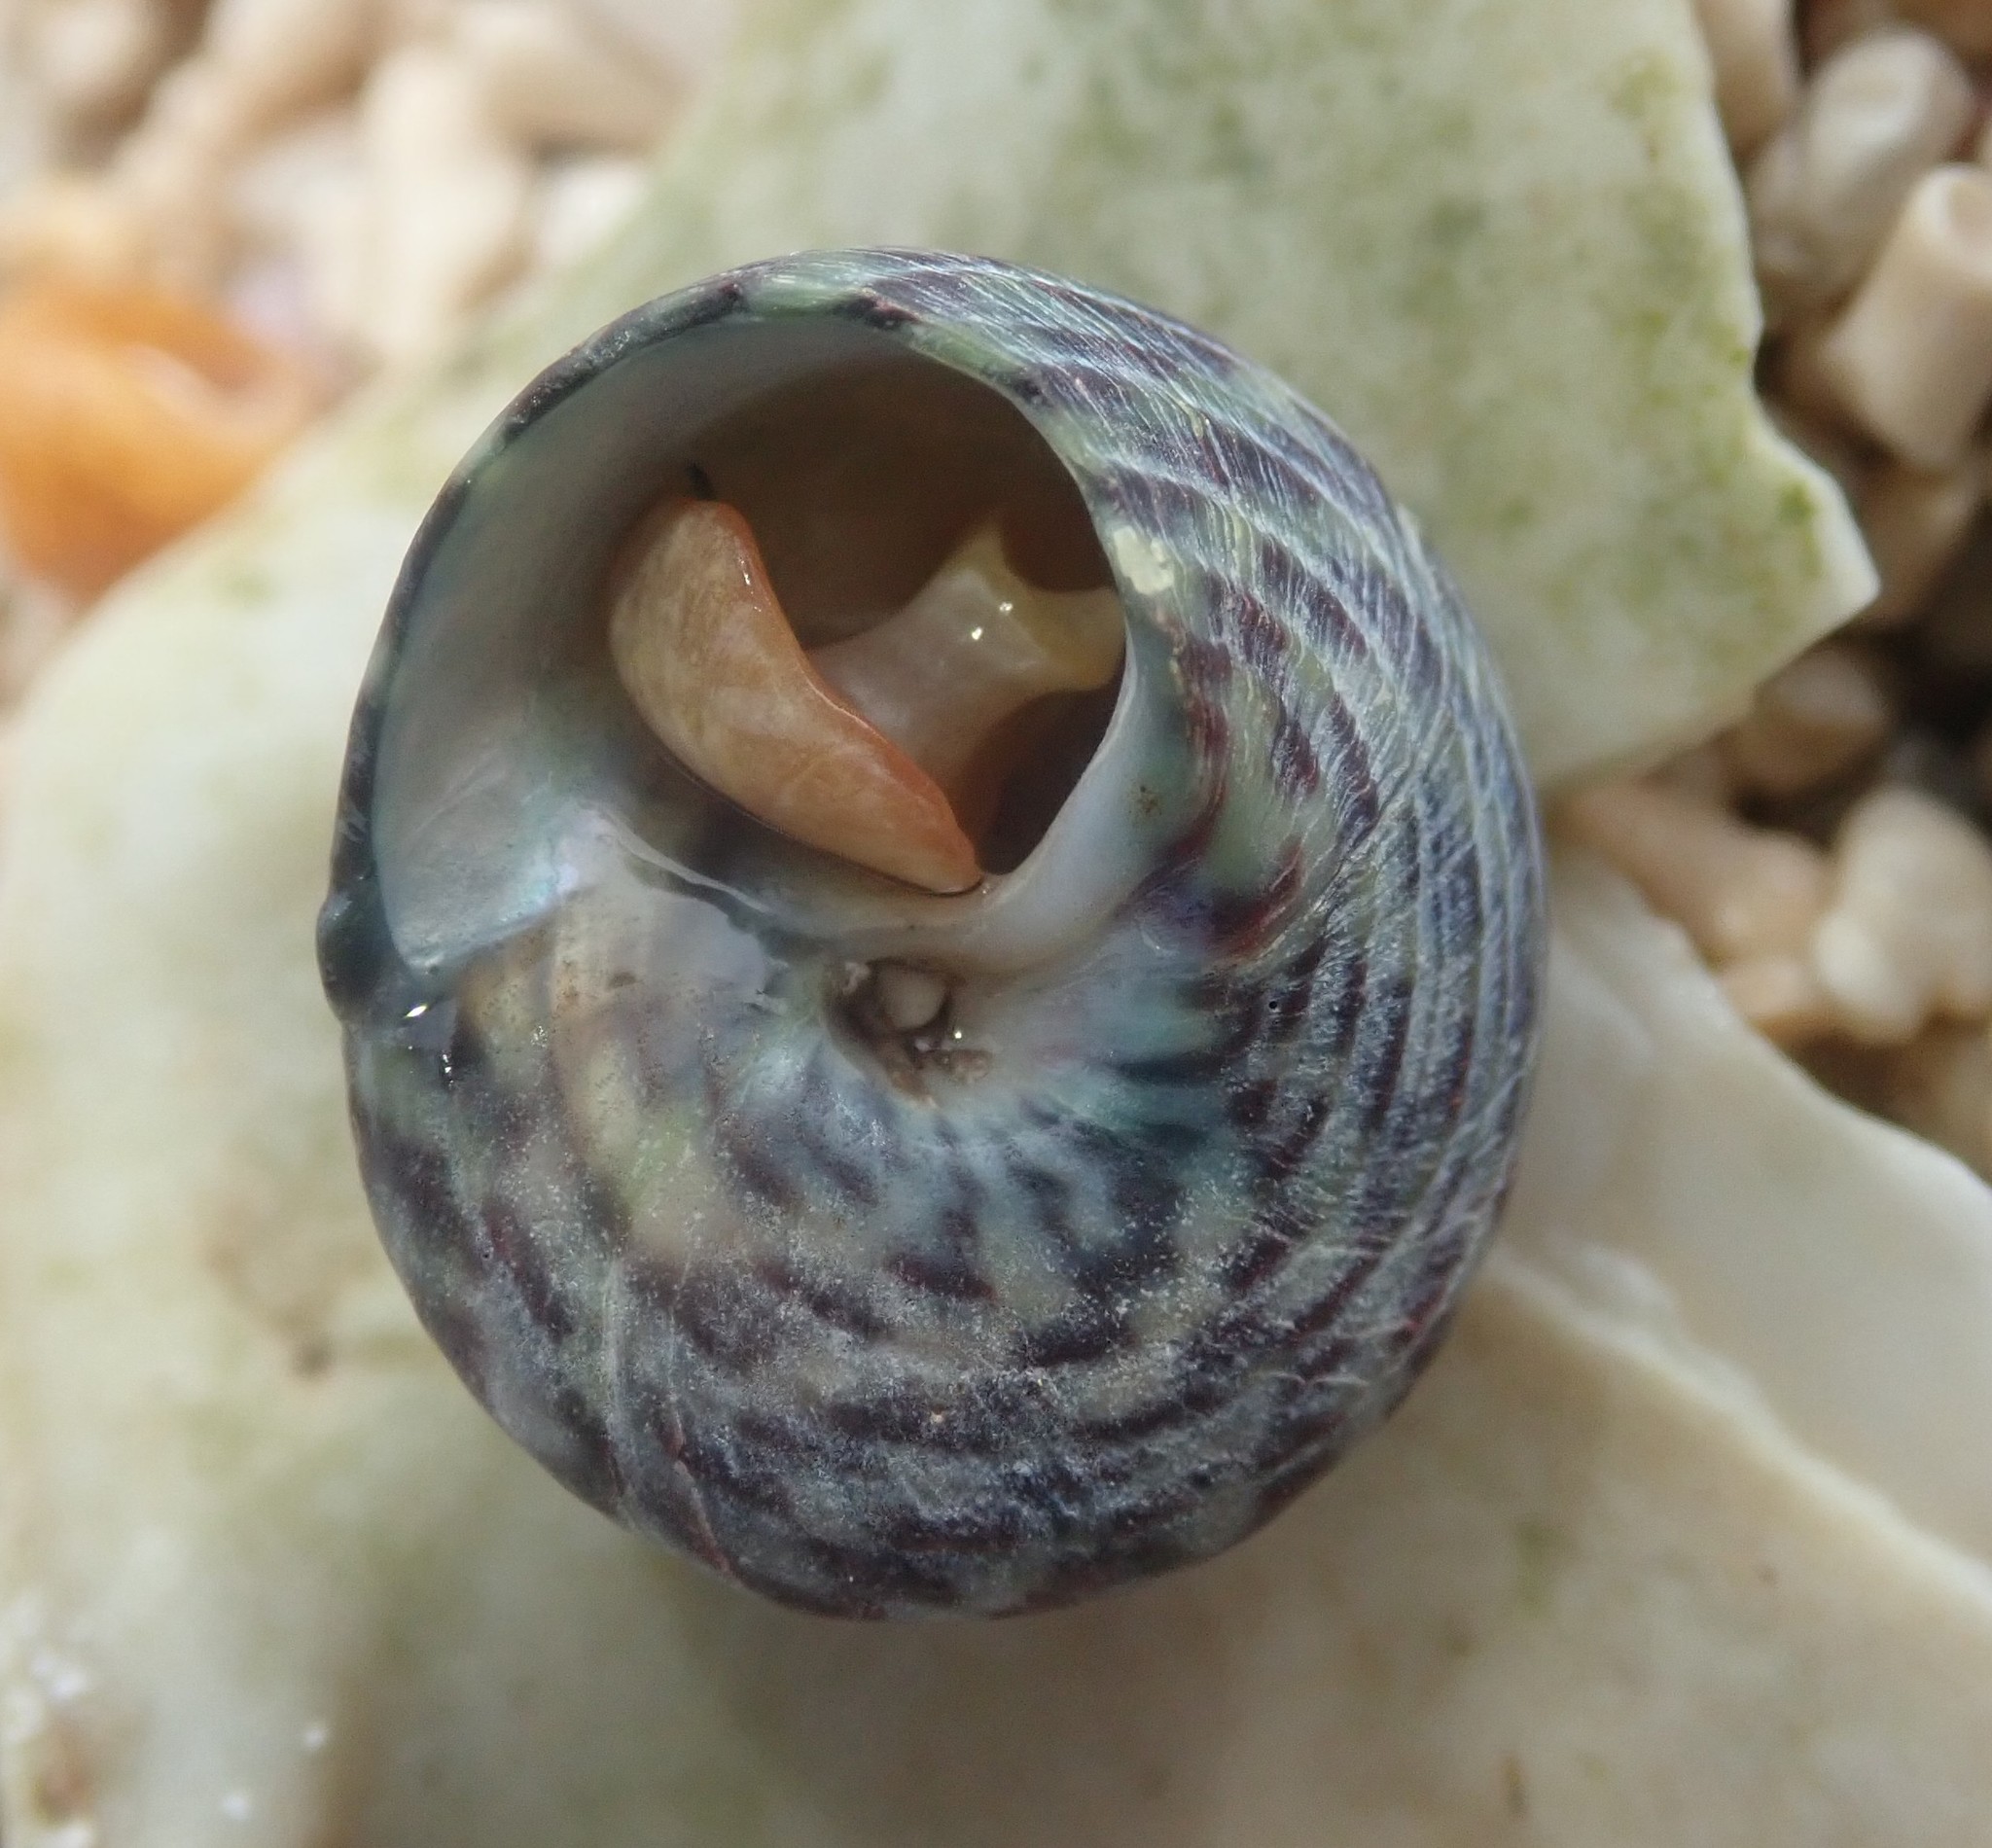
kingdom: Animalia
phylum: Mollusca
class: Gastropoda
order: Trochida
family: Trochidae
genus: Steromphala
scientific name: Steromphala umbilicalis
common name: Flat top shell
